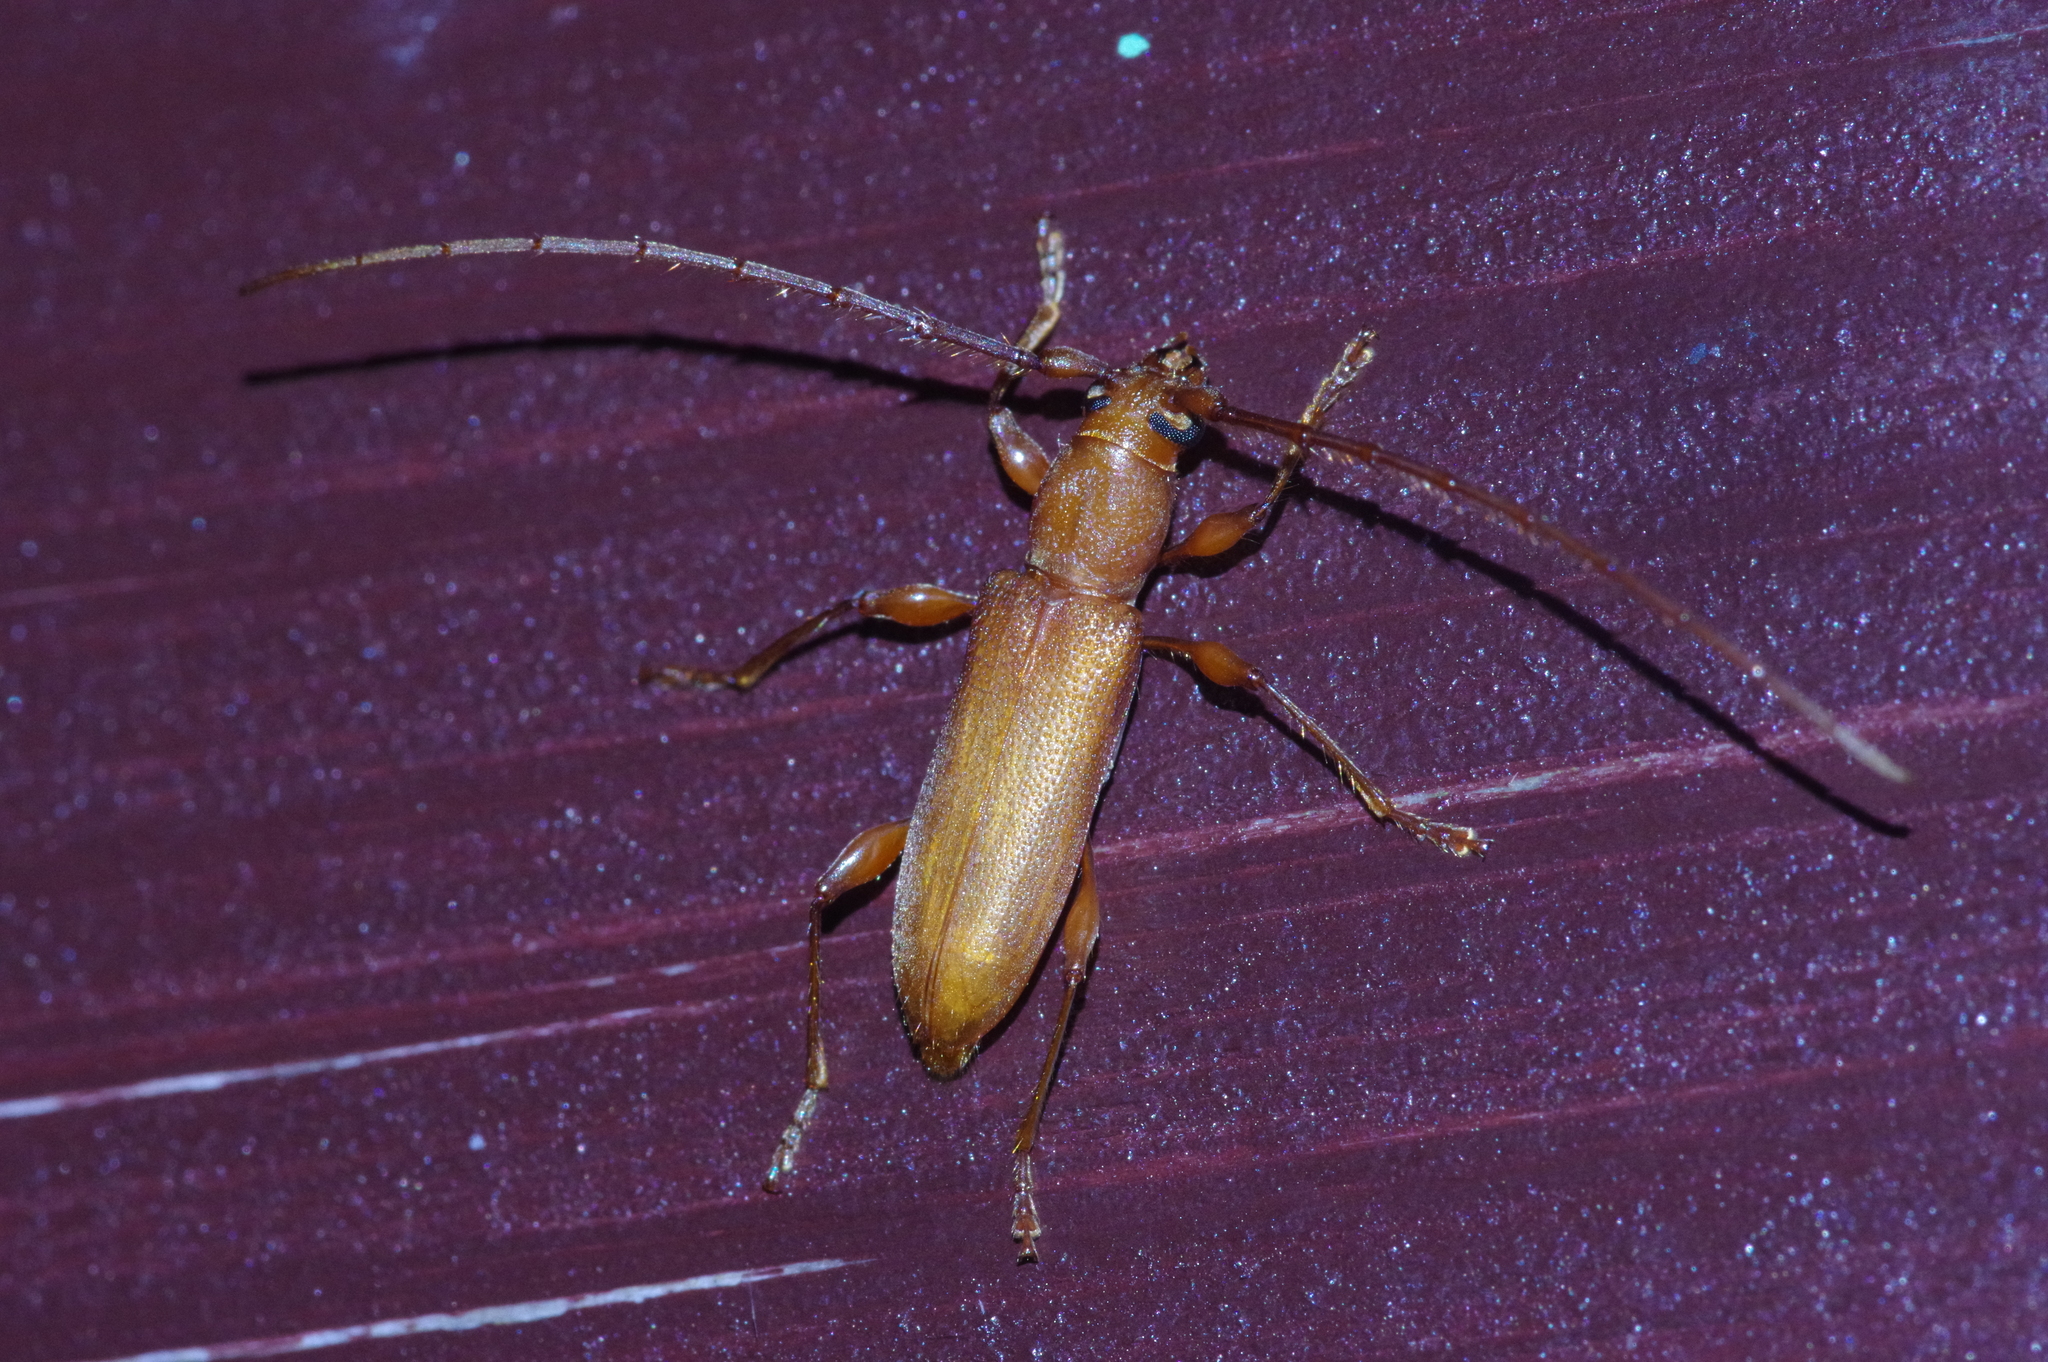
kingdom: Animalia
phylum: Arthropoda
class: Insecta
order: Coleoptera
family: Cerambycidae
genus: Nysina
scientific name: Nysina insularis
